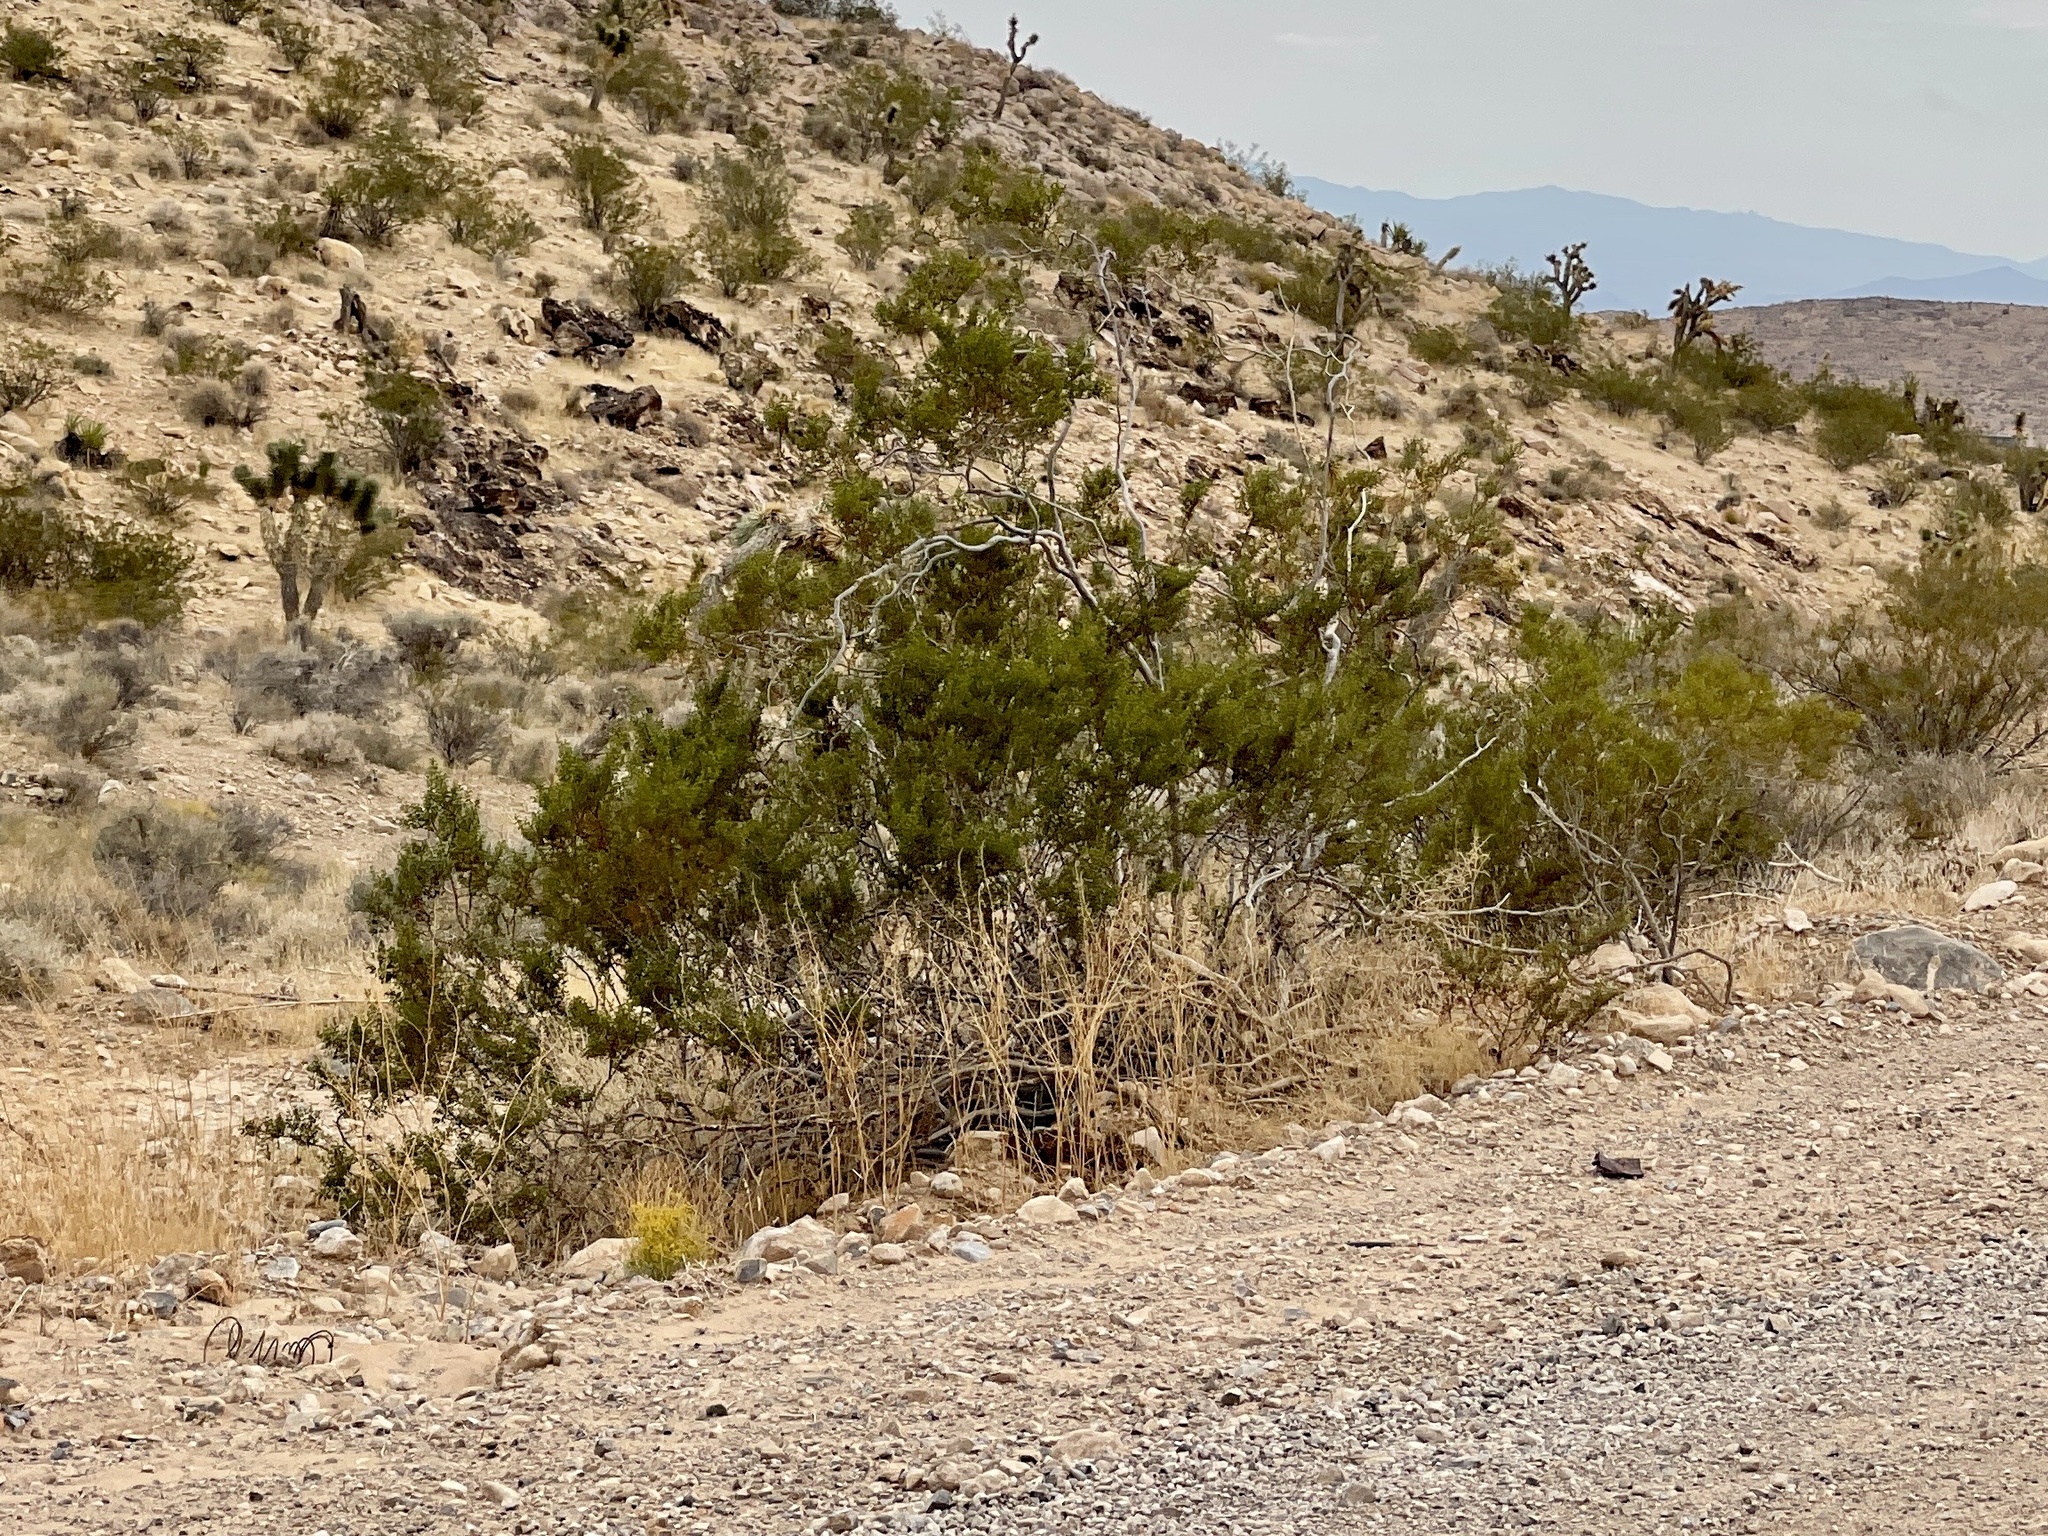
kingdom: Plantae
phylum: Tracheophyta
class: Magnoliopsida
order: Zygophyllales
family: Zygophyllaceae
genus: Larrea
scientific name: Larrea tridentata
